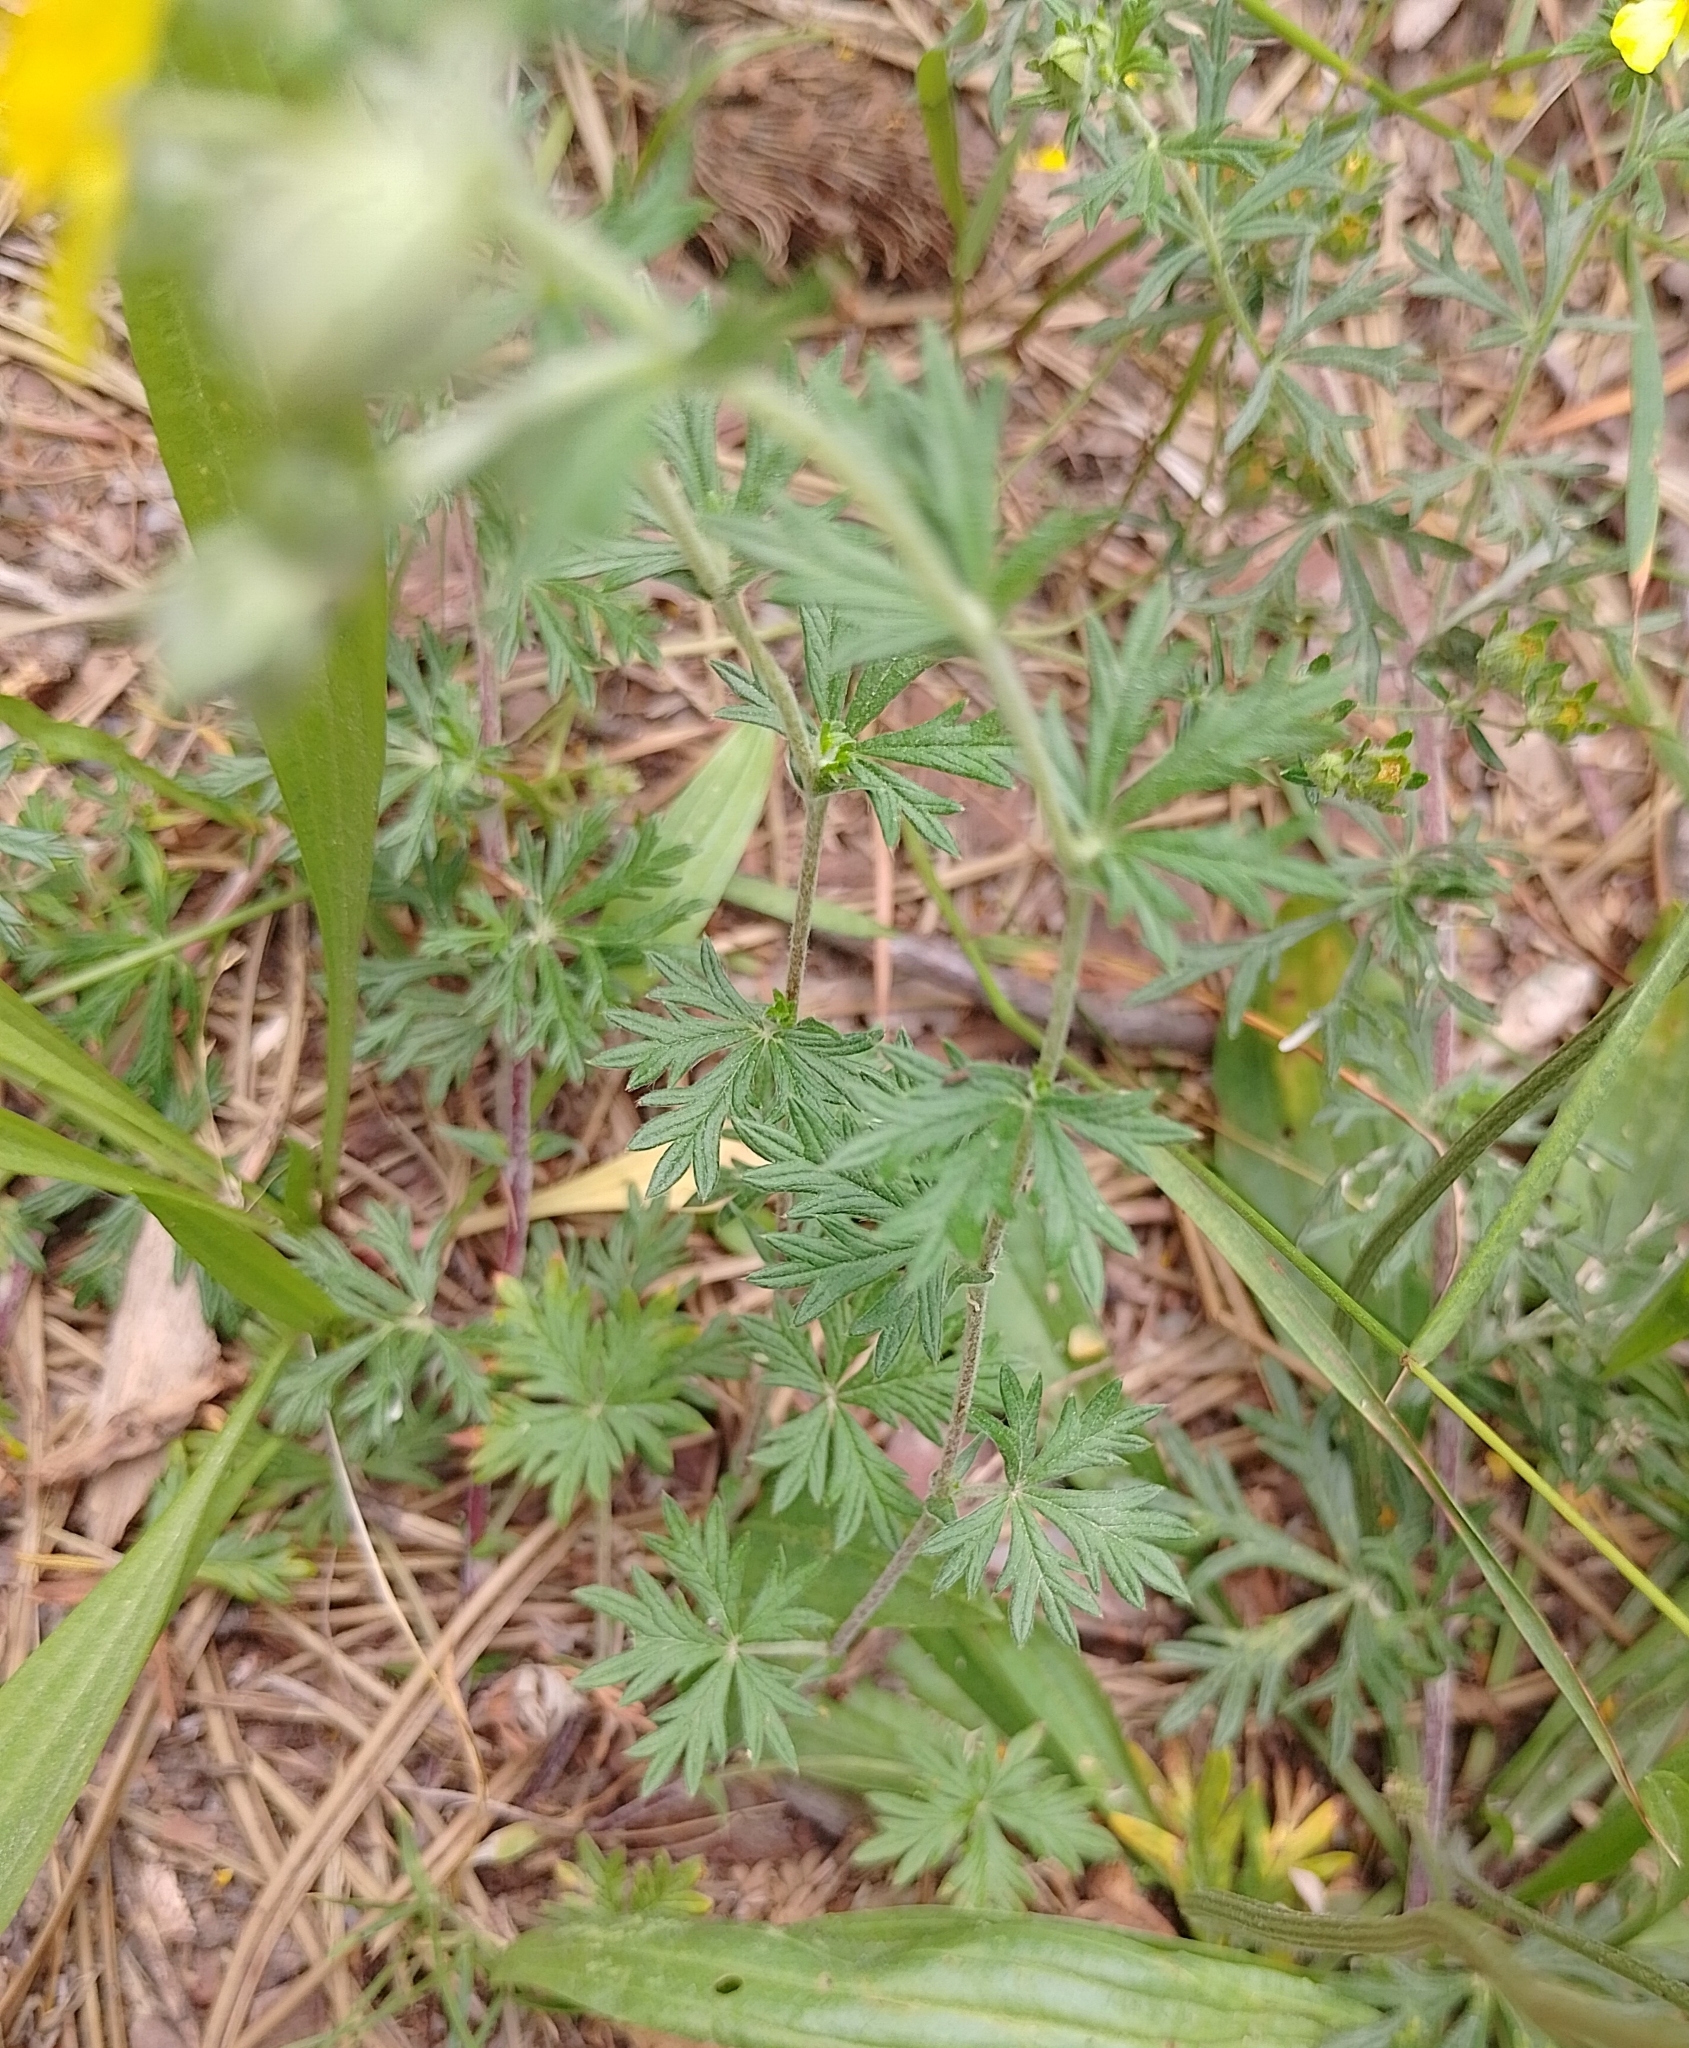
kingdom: Plantae
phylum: Tracheophyta
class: Magnoliopsida
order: Rosales
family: Rosaceae
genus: Potentilla
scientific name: Potentilla argentea
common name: Hoary cinquefoil
